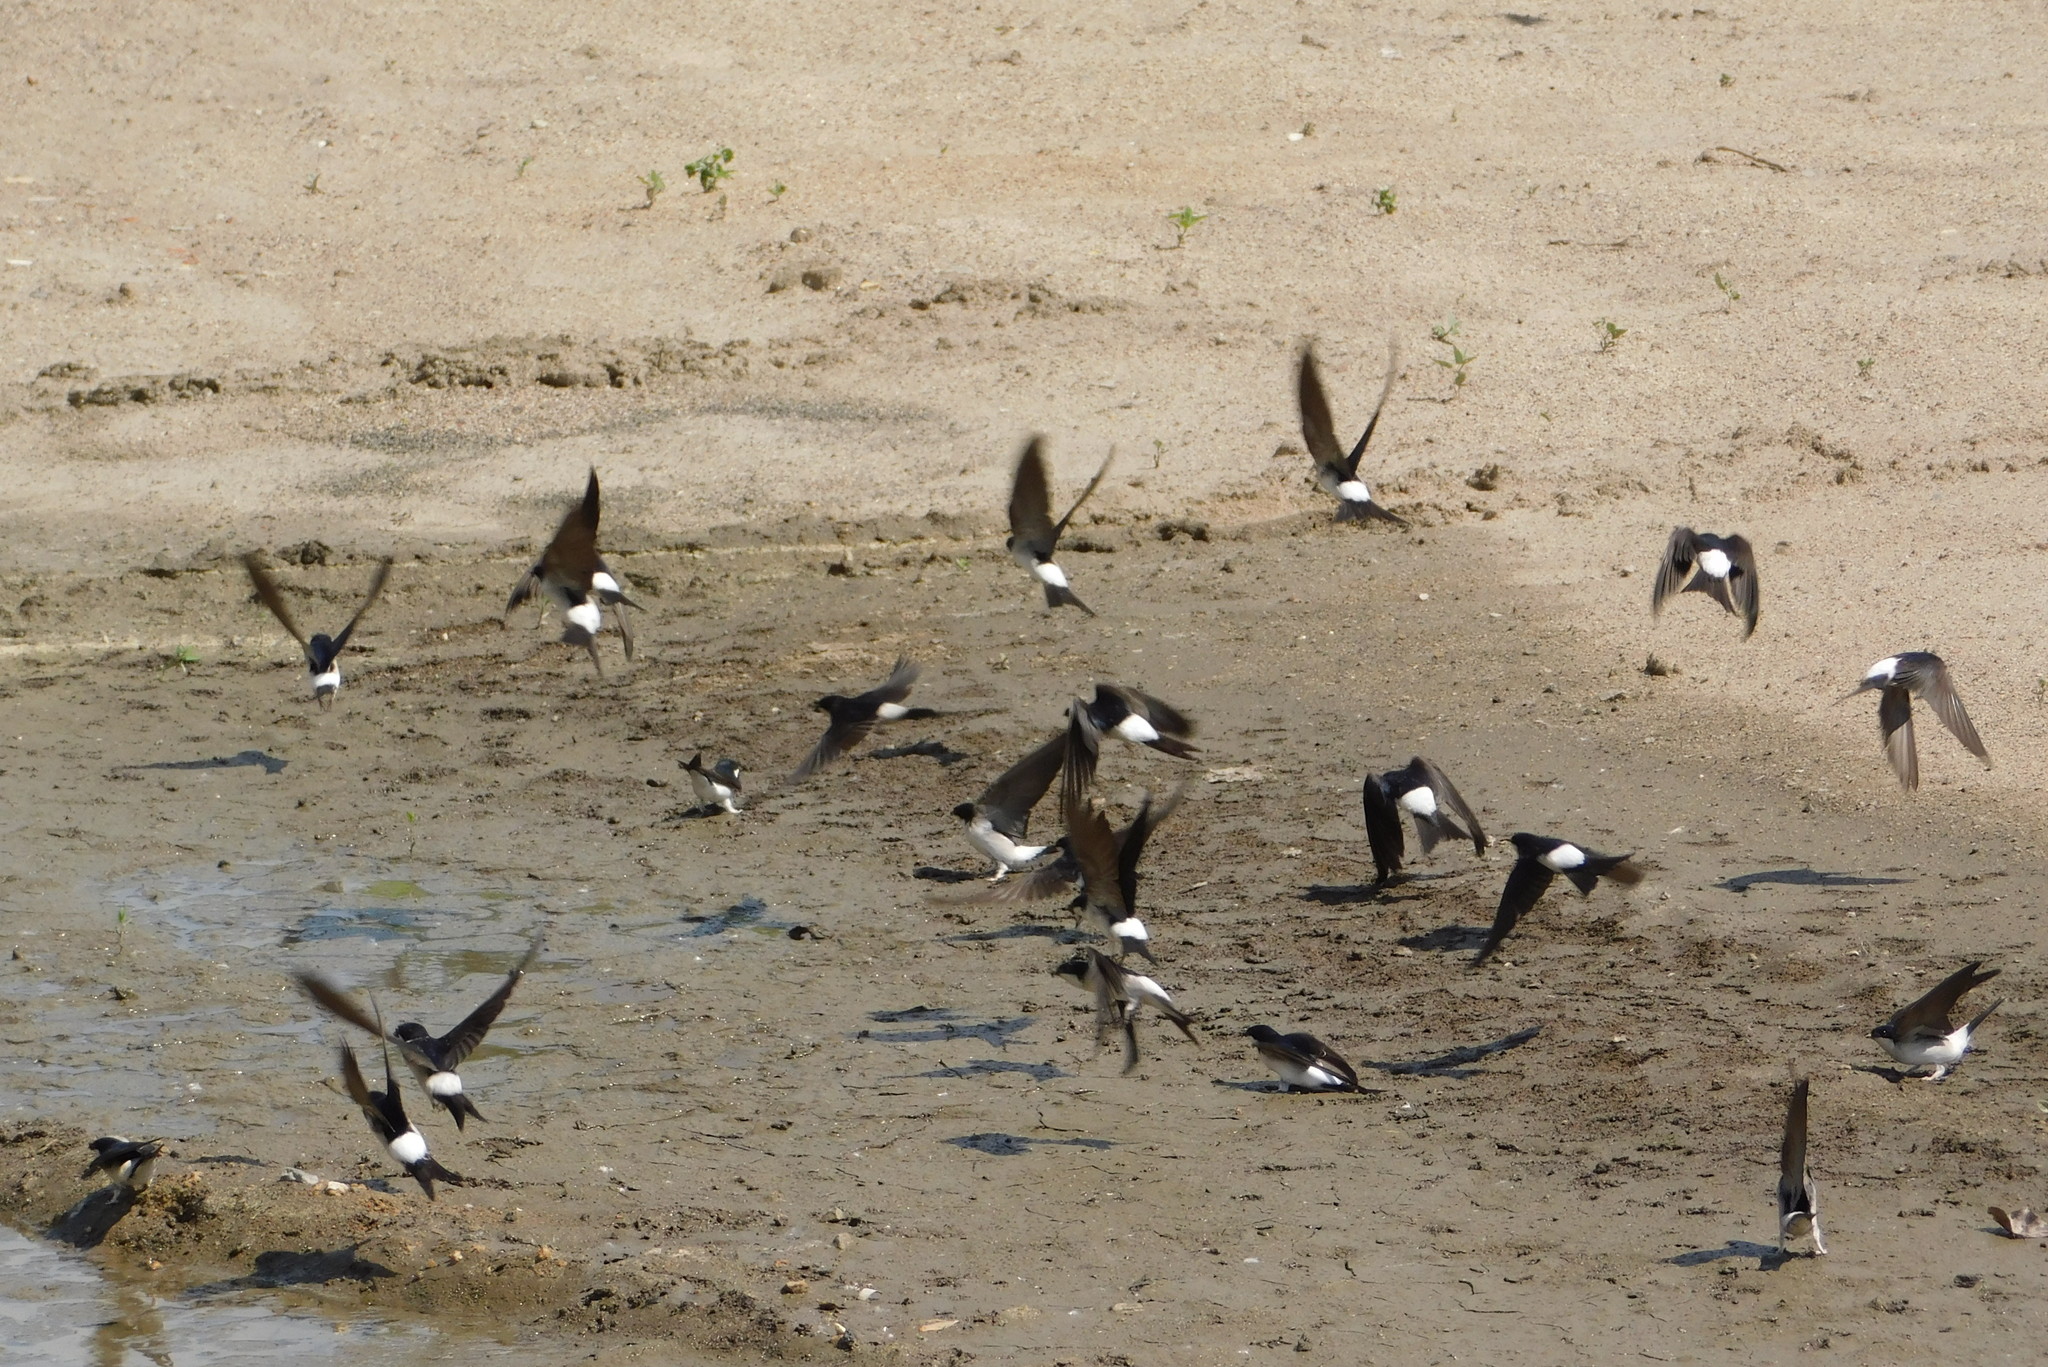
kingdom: Animalia
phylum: Chordata
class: Aves
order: Passeriformes
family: Hirundinidae
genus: Delichon
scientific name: Delichon urbicum
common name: Common house martin
